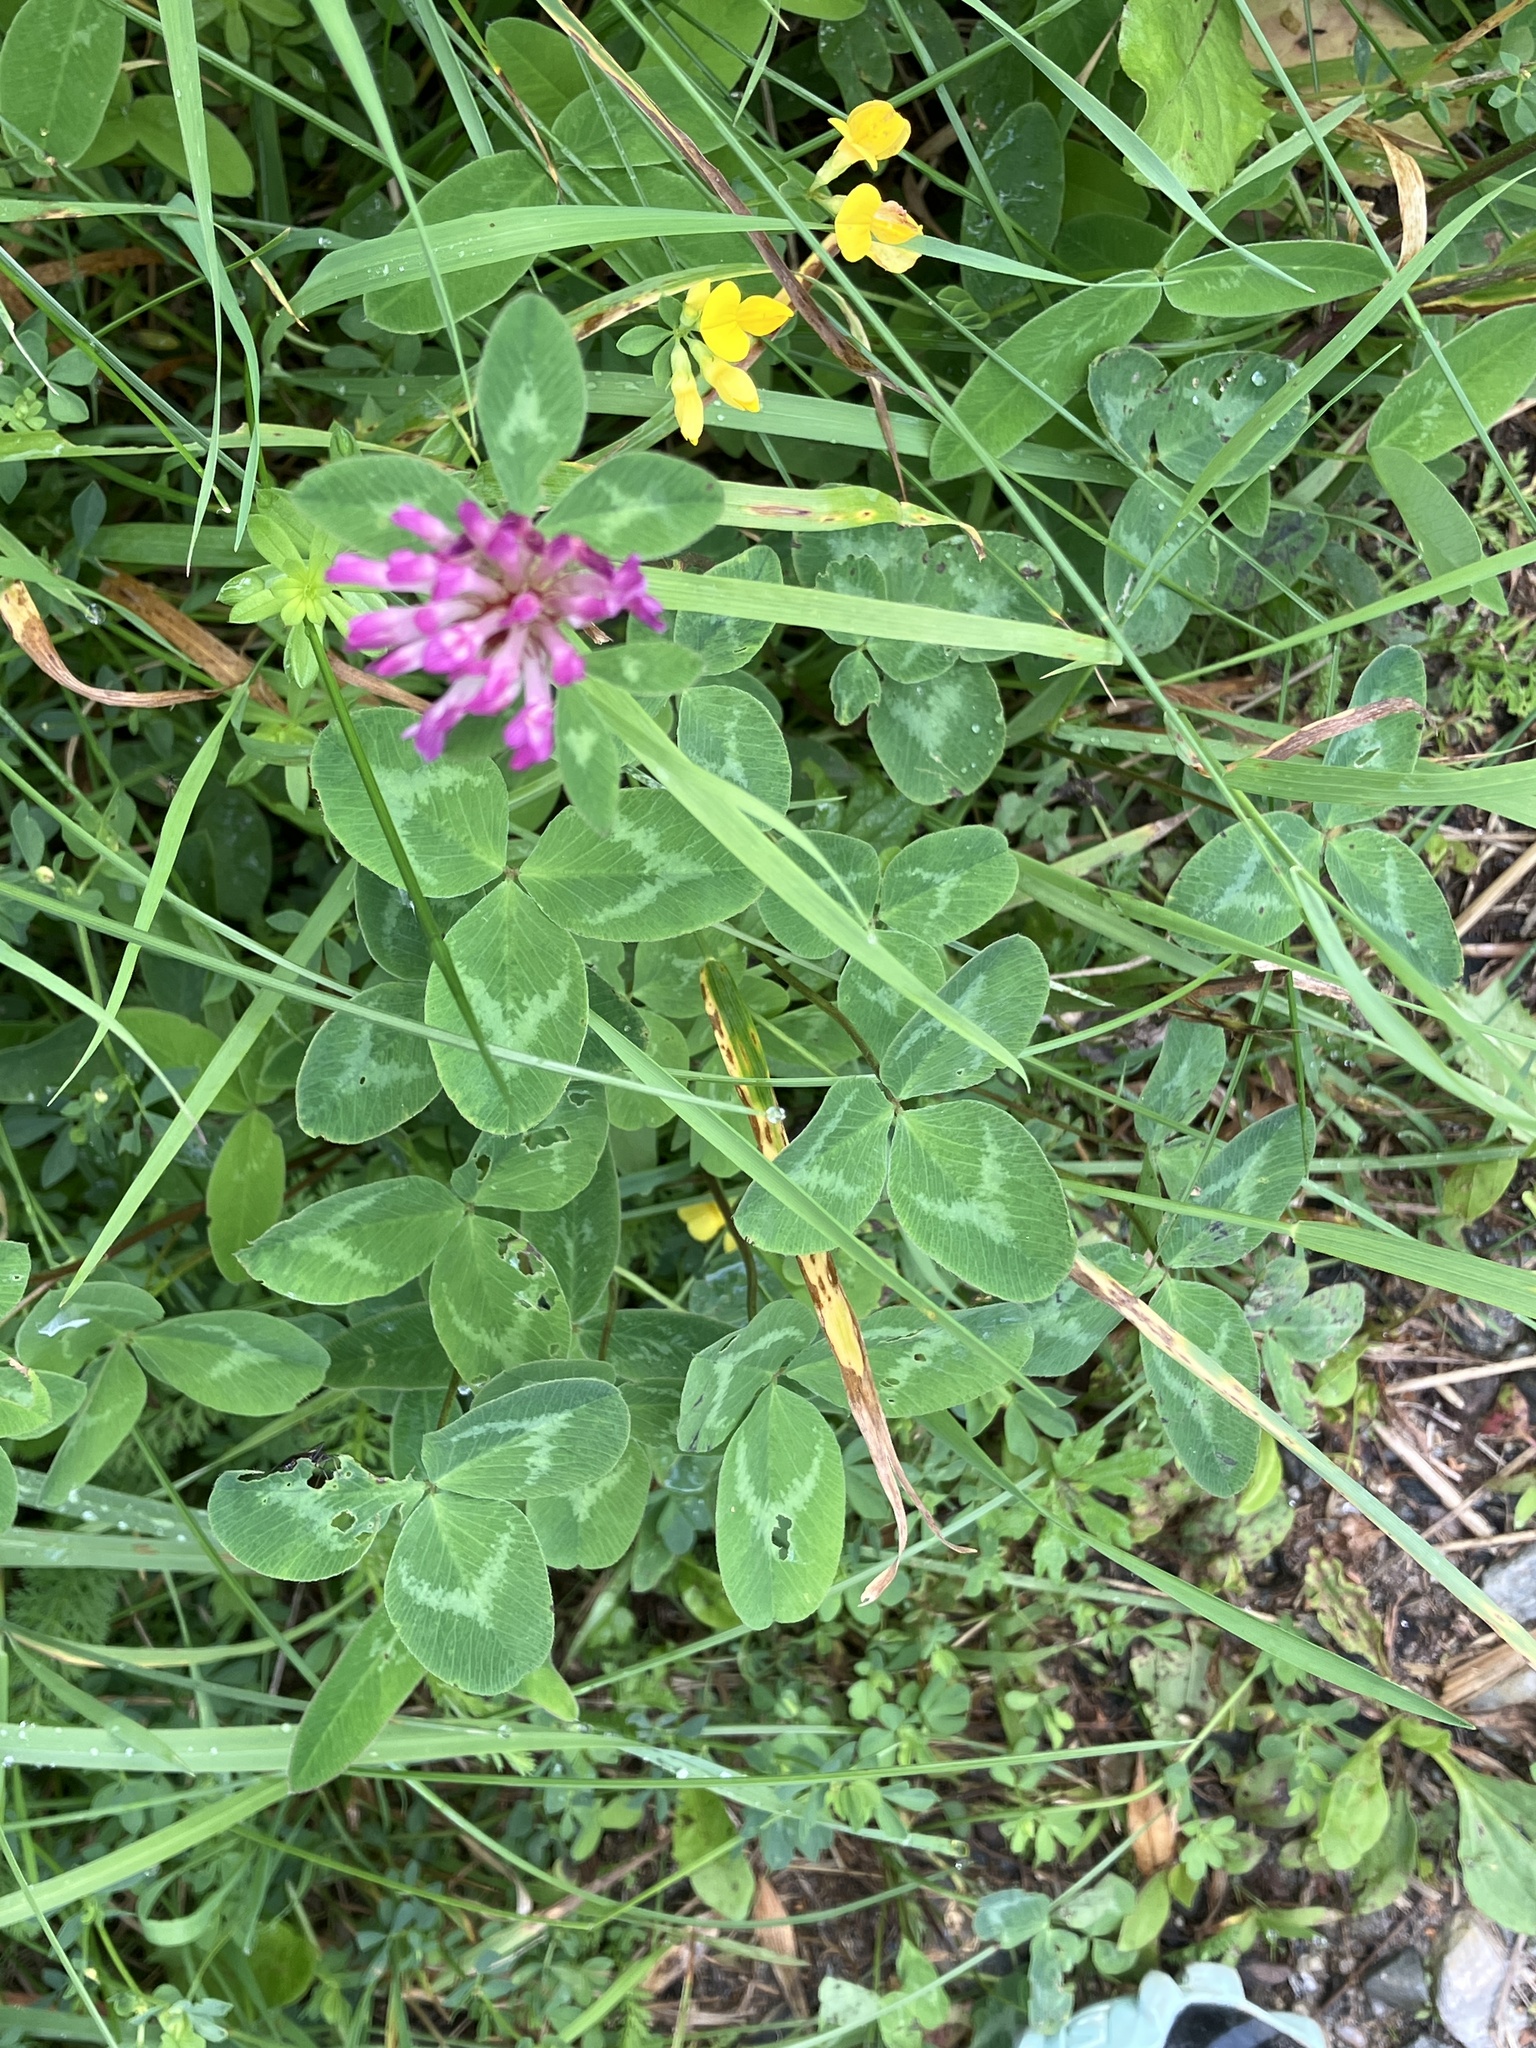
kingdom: Plantae
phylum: Tracheophyta
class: Magnoliopsida
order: Fabales
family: Fabaceae
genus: Trifolium
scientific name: Trifolium pratense
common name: Red clover
